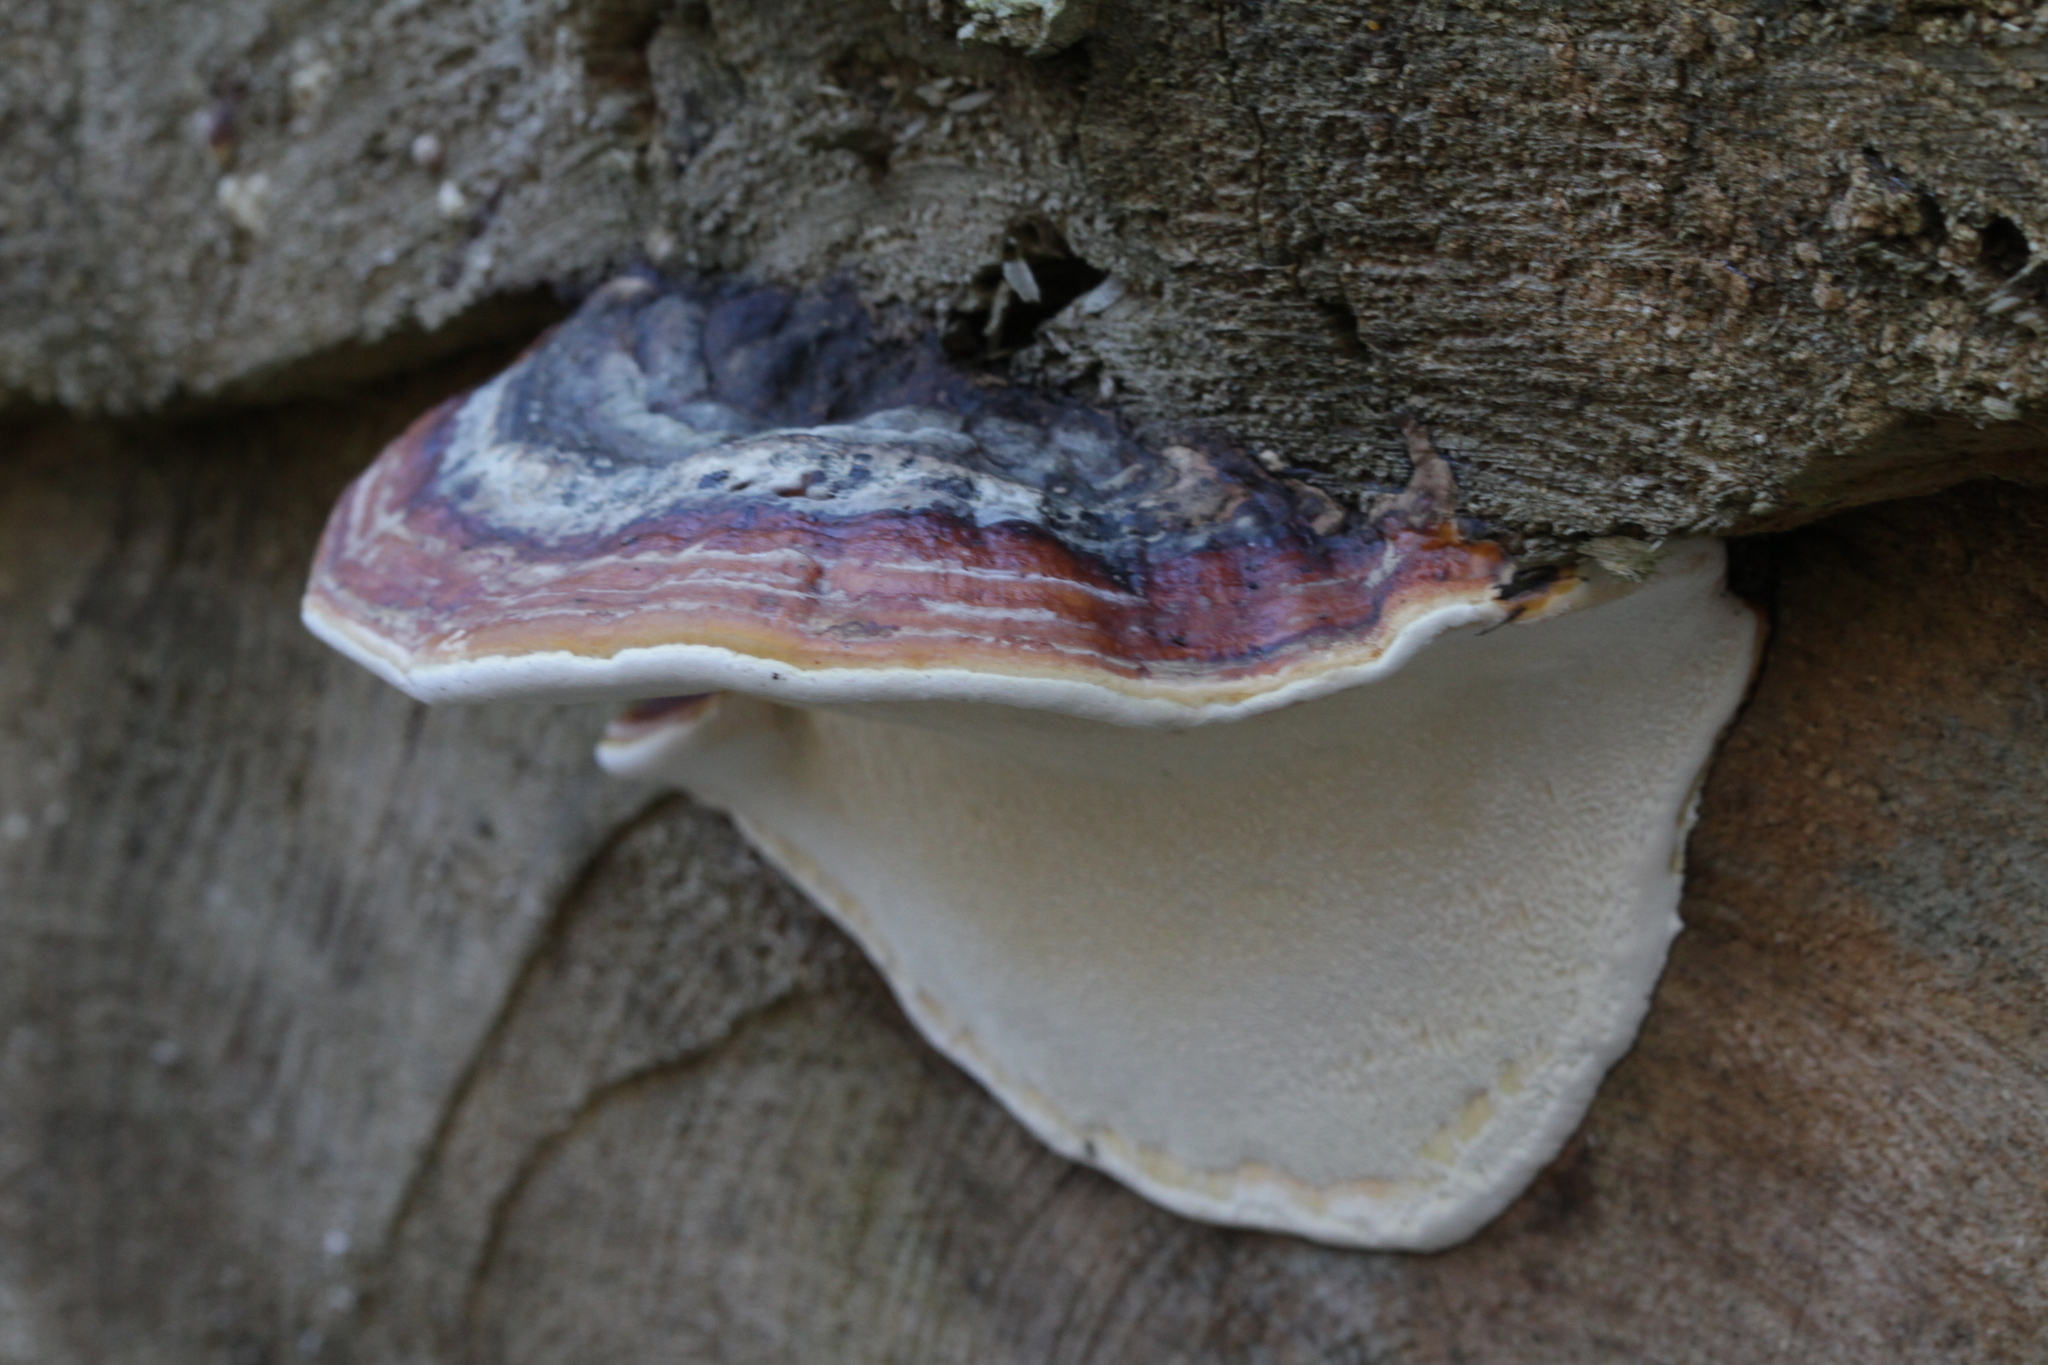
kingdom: Fungi
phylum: Basidiomycota
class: Agaricomycetes
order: Polyporales
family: Fomitopsidaceae
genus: Fomitopsis
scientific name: Fomitopsis pinicola
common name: Red-belted bracket
